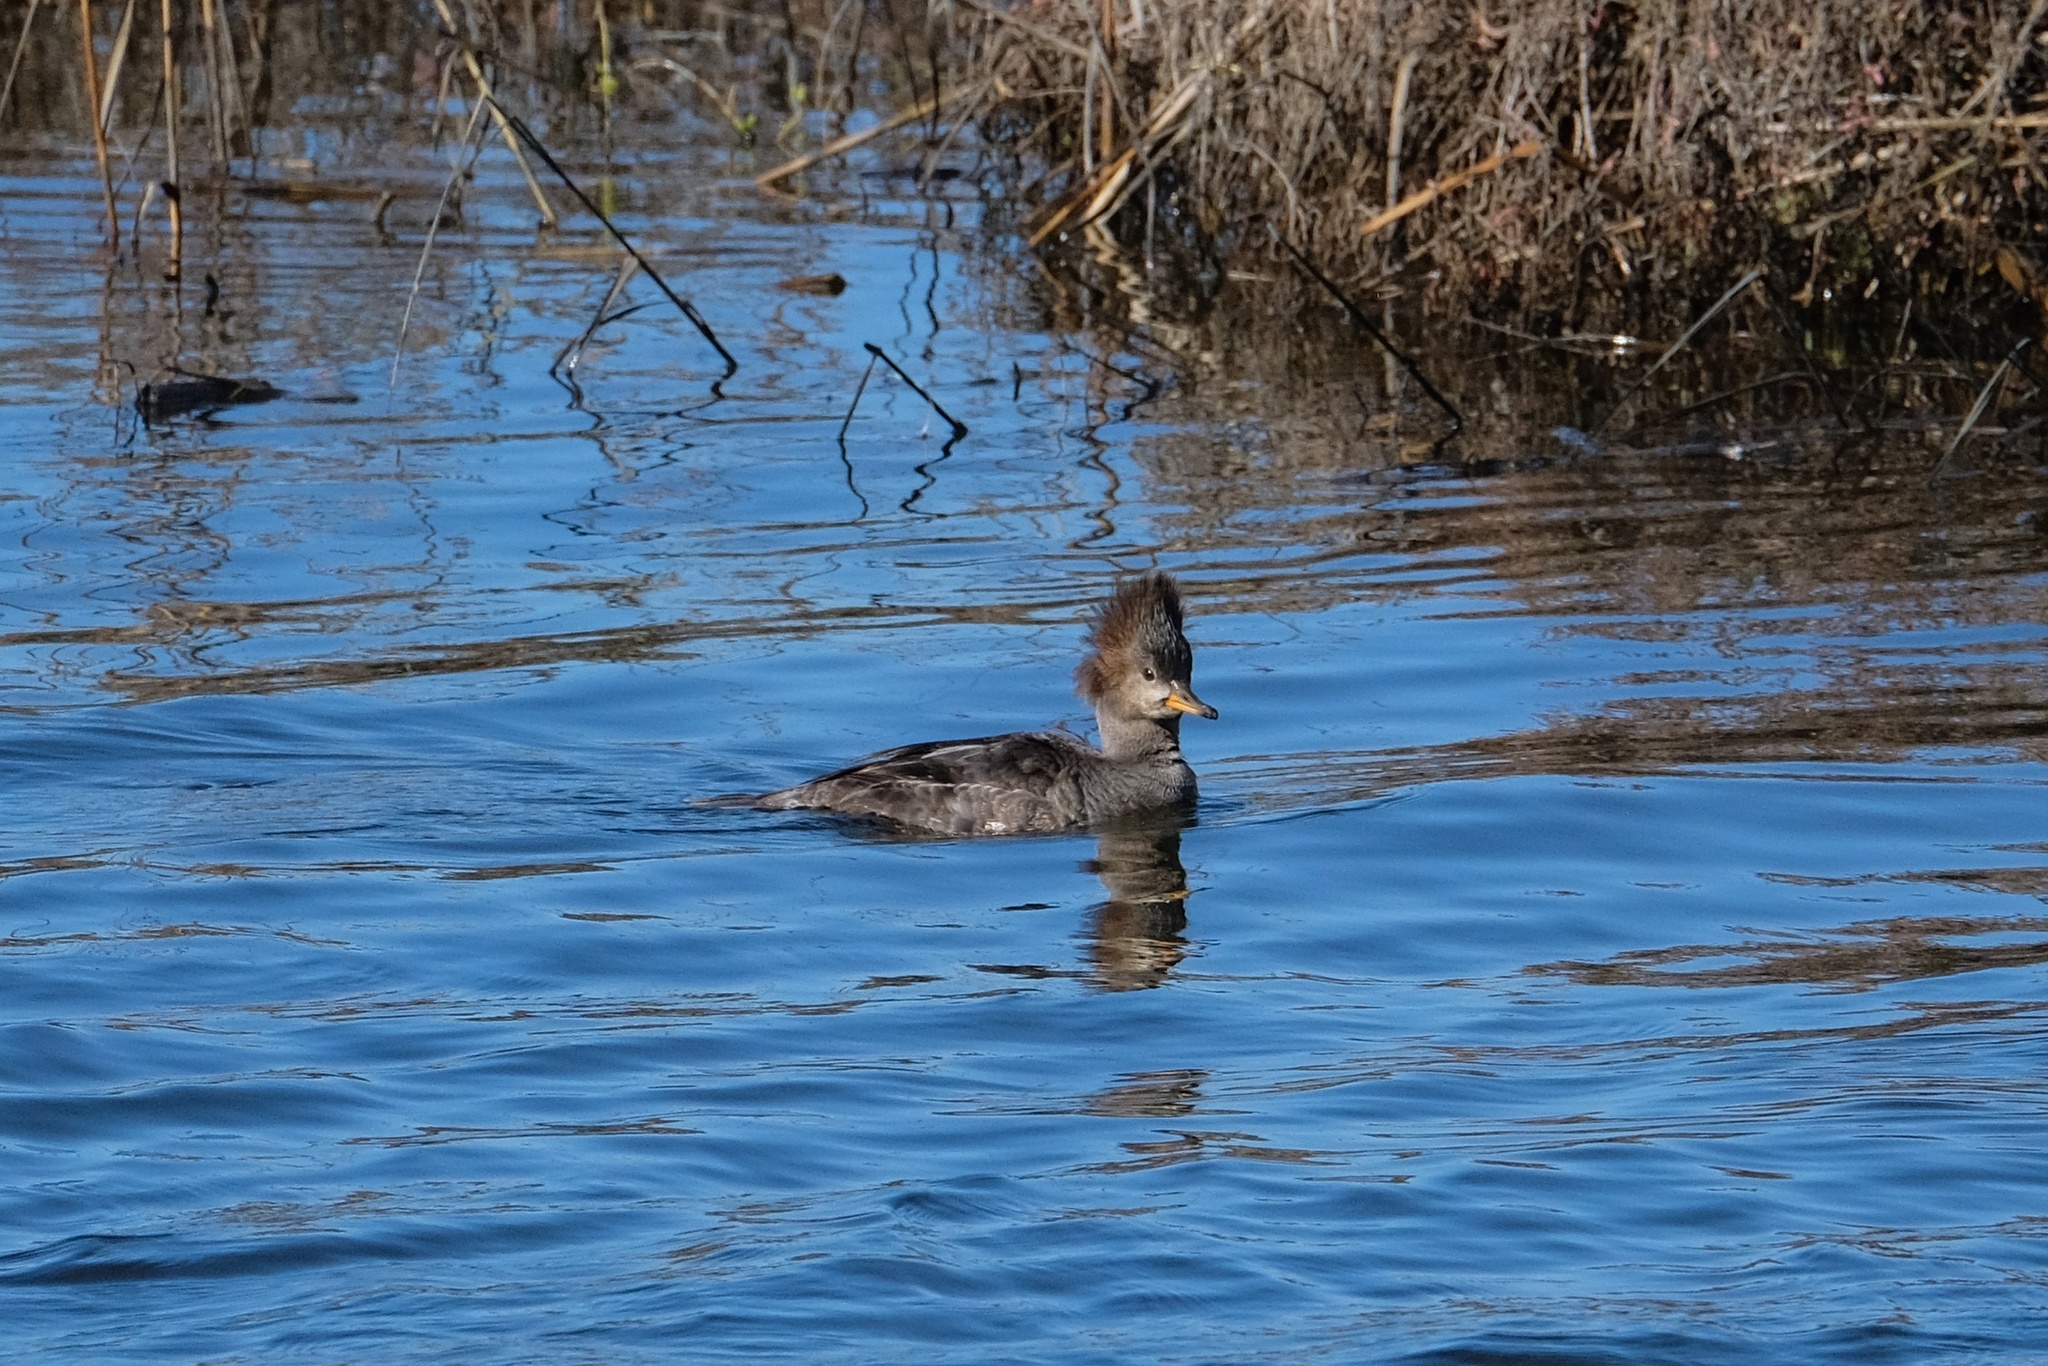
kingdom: Animalia
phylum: Chordata
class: Aves
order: Anseriformes
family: Anatidae
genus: Lophodytes
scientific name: Lophodytes cucullatus
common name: Hooded merganser
